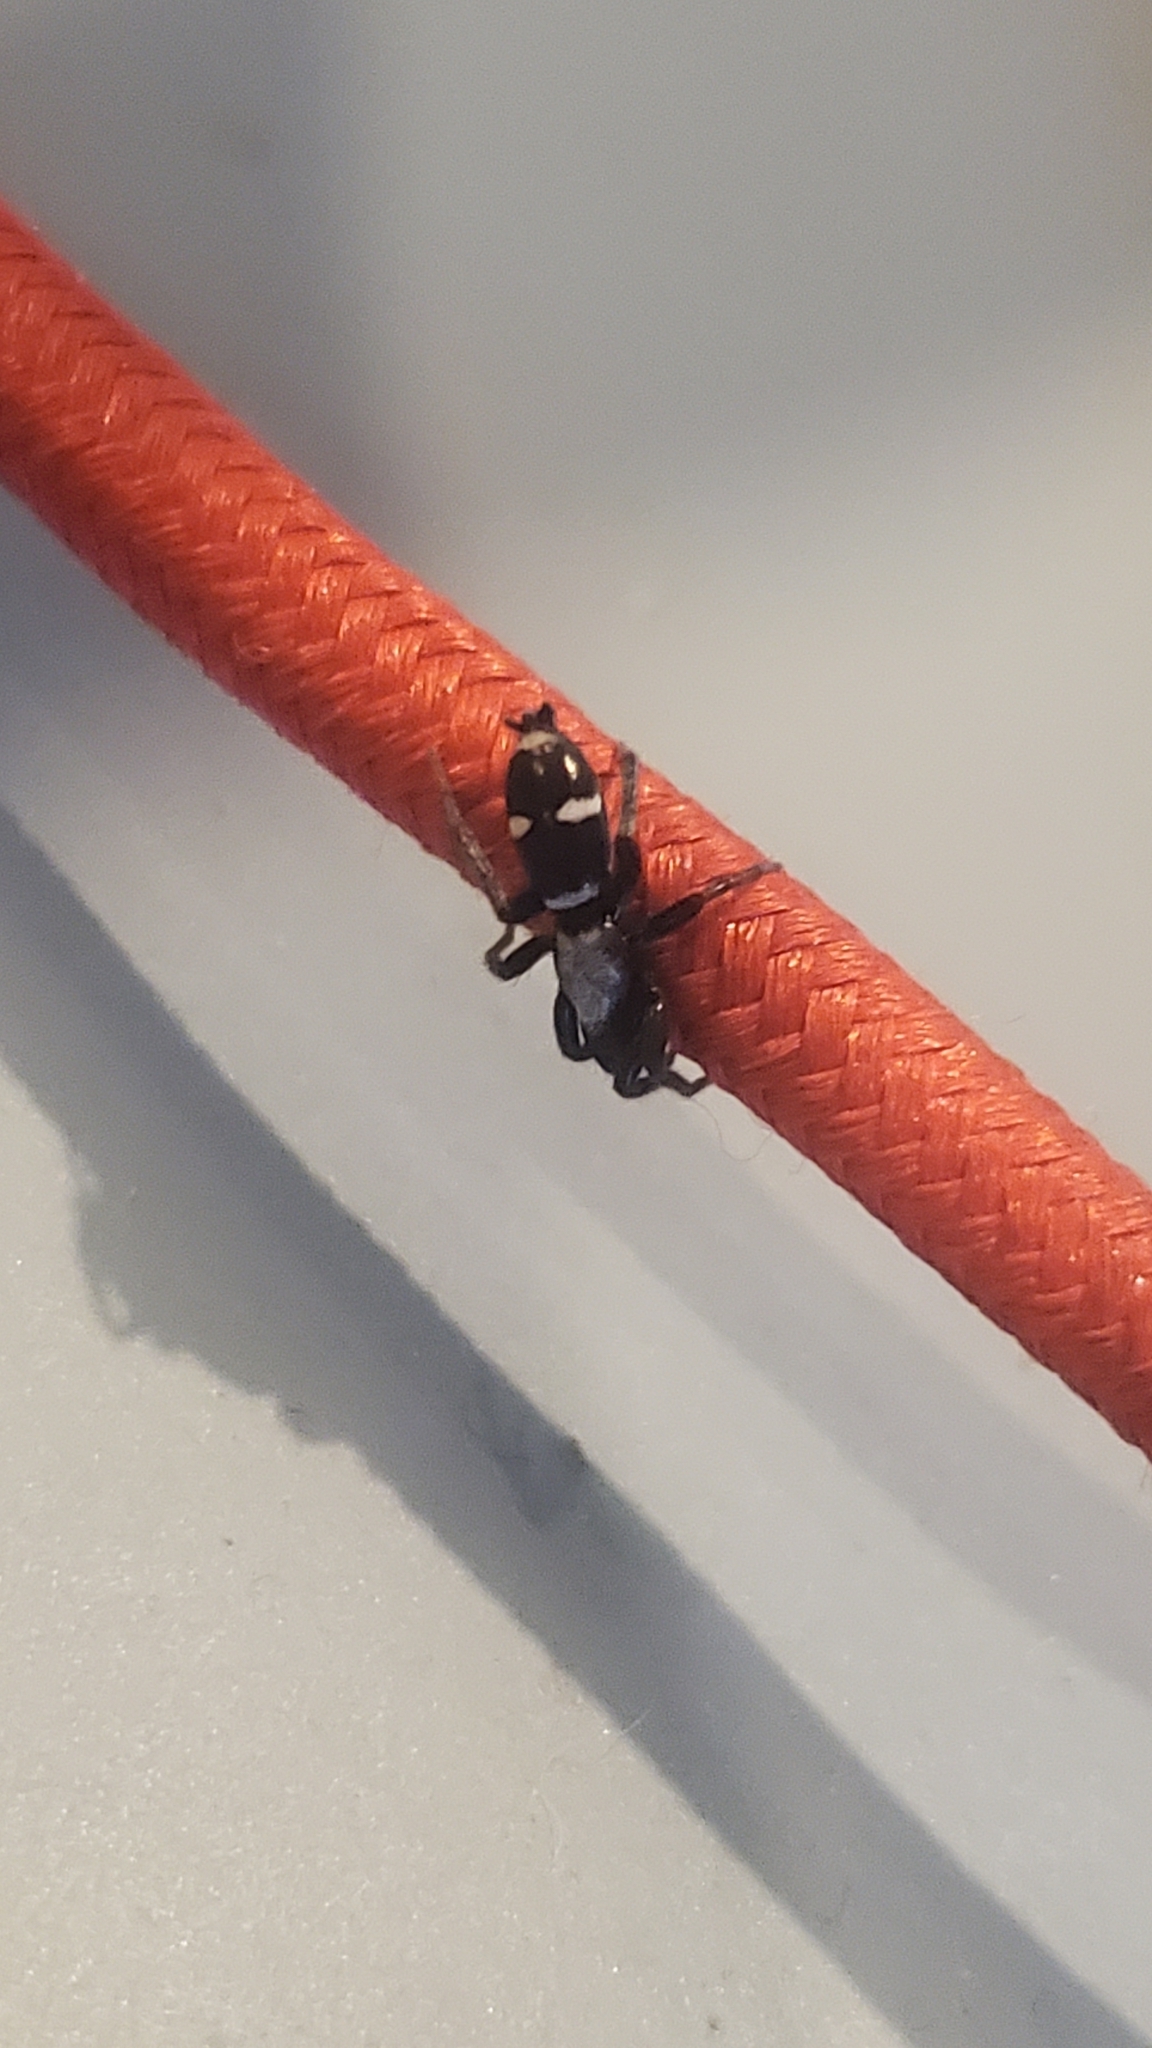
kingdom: Animalia
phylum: Arthropoda
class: Arachnida
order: Araneae
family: Gnaphosidae
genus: Sergiolus
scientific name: Sergiolus columbianus
